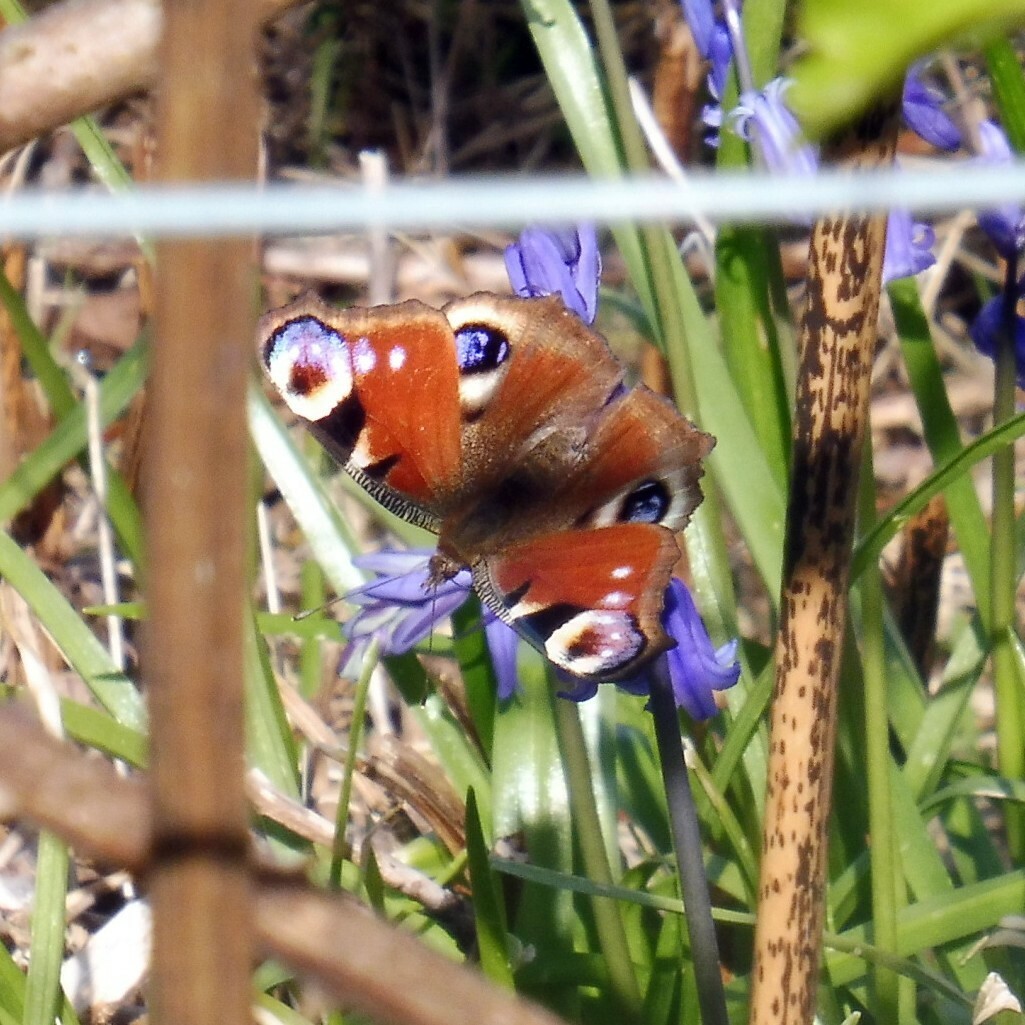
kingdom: Animalia
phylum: Arthropoda
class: Insecta
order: Lepidoptera
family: Nymphalidae
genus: Aglais
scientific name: Aglais io
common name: Peacock
